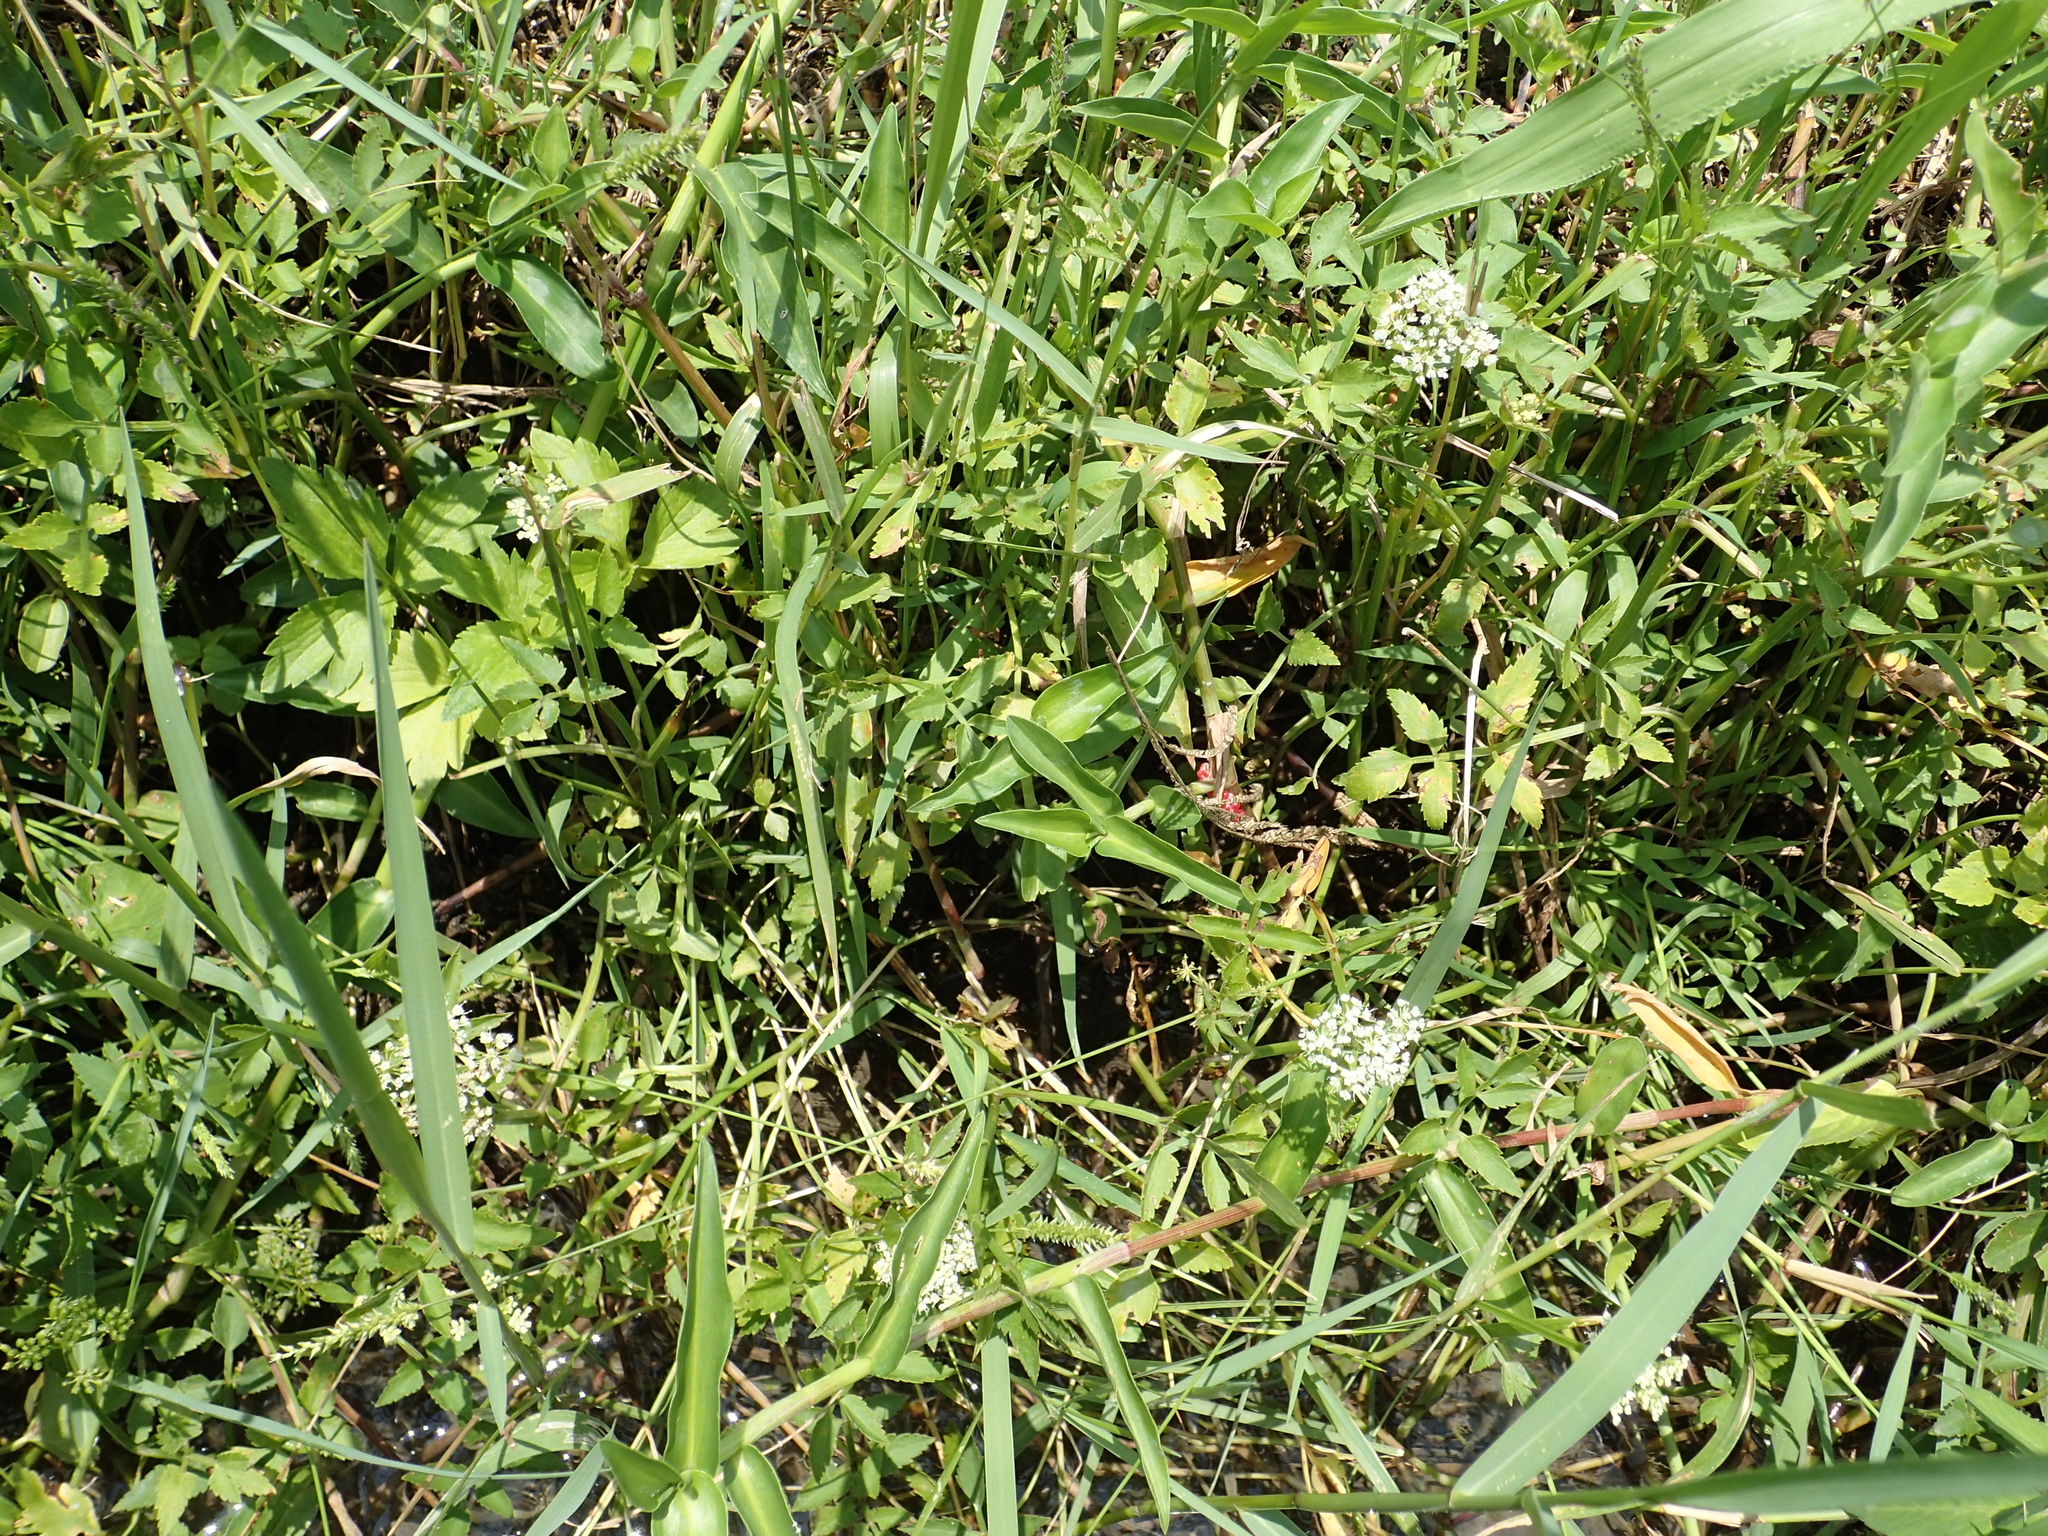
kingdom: Plantae
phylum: Tracheophyta
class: Magnoliopsida
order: Apiales
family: Apiaceae
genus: Oenanthe
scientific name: Oenanthe javanica
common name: Java water-dropwort
